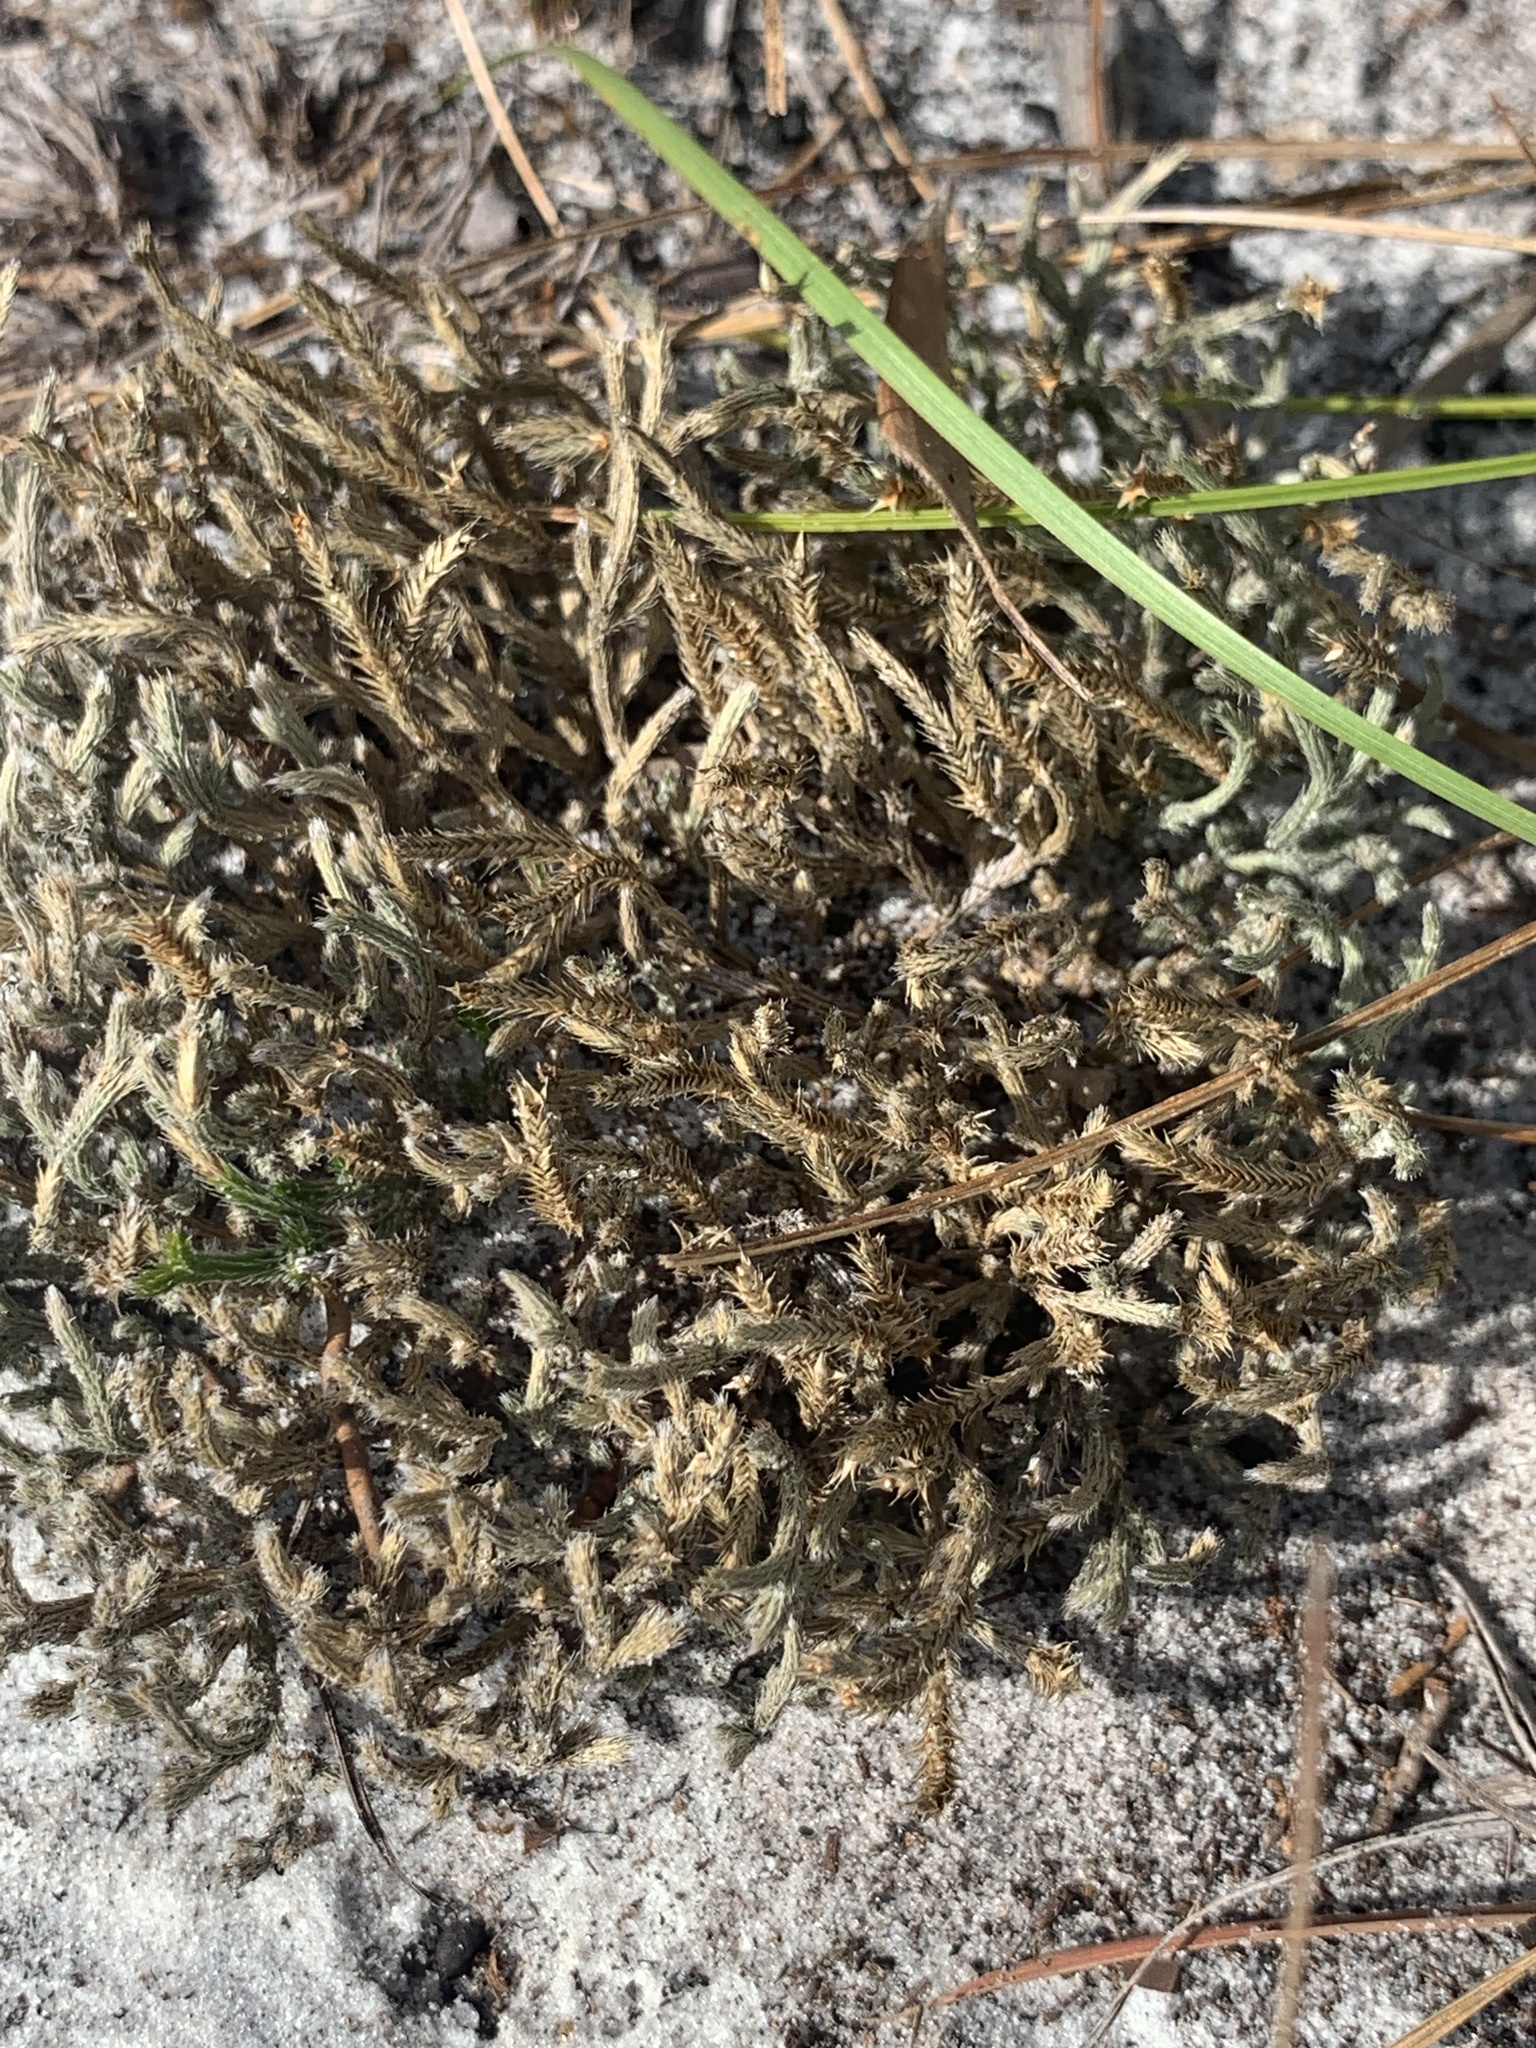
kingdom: Plantae
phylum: Tracheophyta
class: Lycopodiopsida
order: Selaginellales
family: Selaginellaceae
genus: Selaginella
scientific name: Selaginella arenicola
